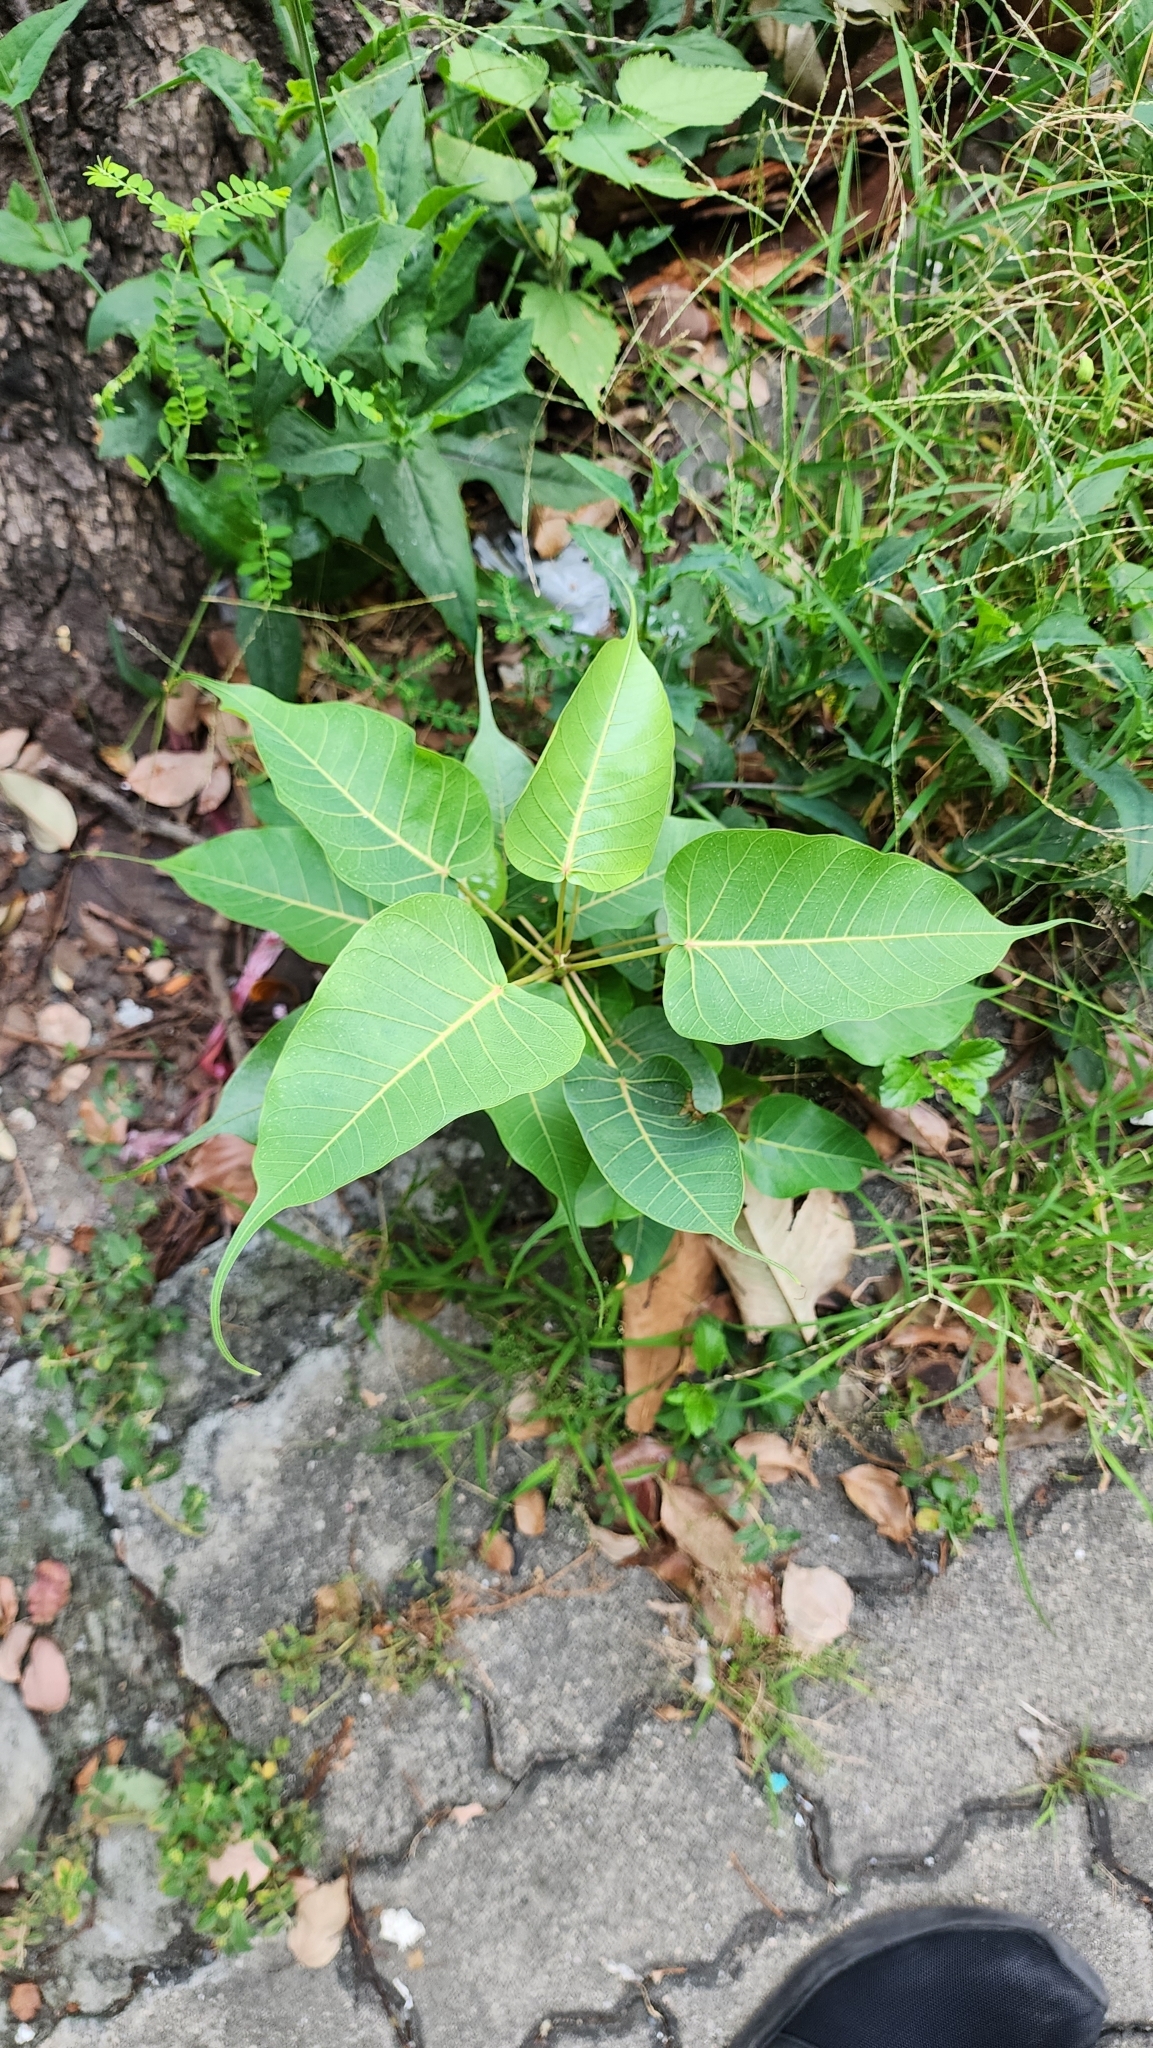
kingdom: Plantae
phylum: Tracheophyta
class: Magnoliopsida
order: Rosales
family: Moraceae
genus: Ficus
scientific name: Ficus religiosa
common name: Bodhi tree
